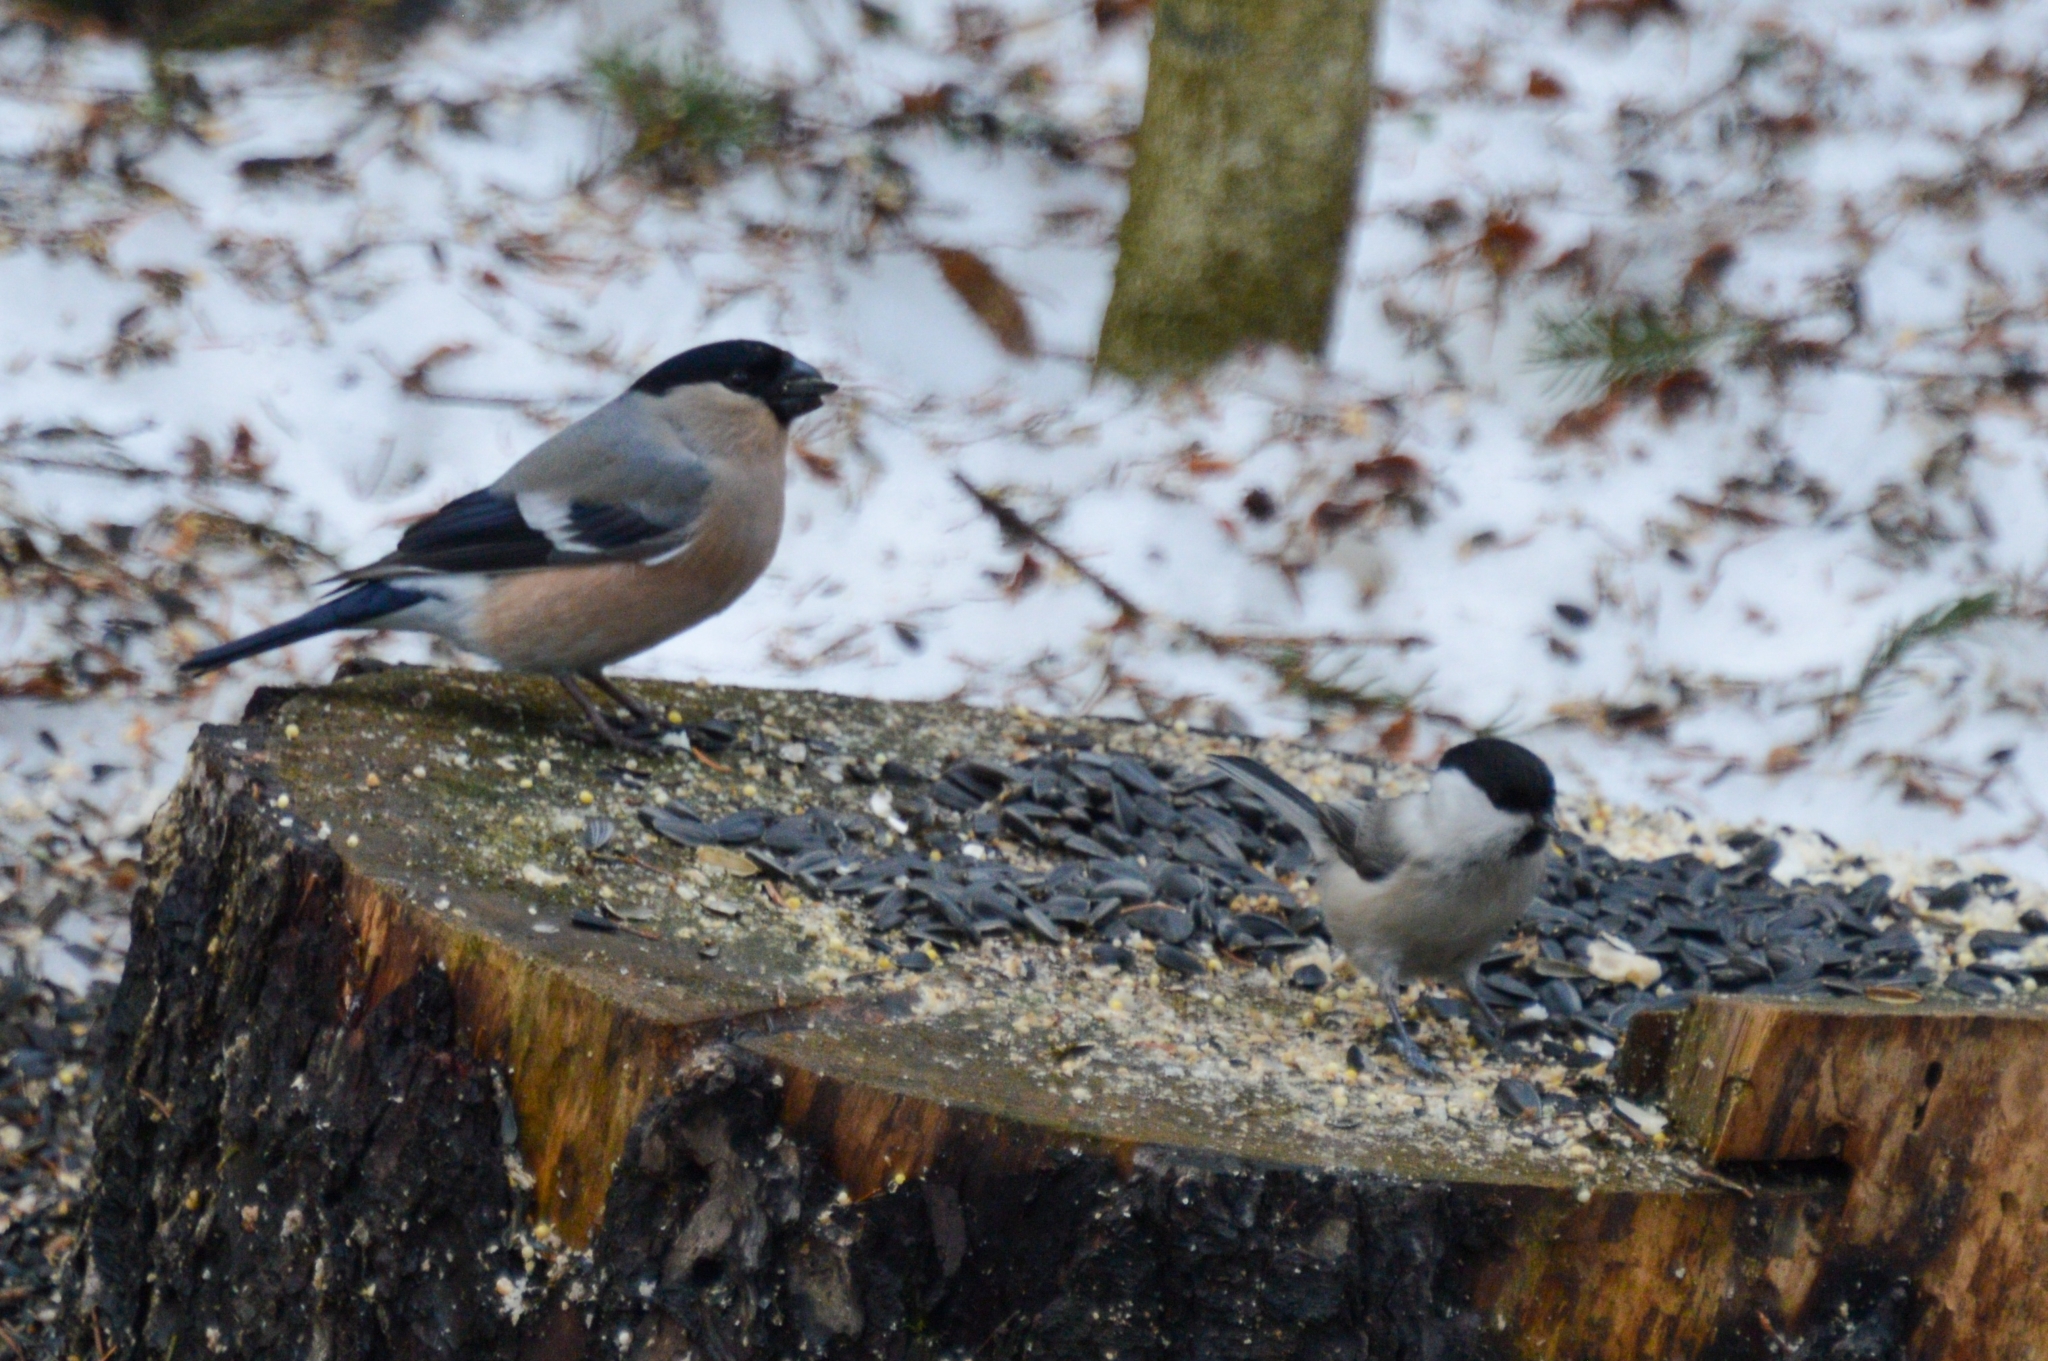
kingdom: Animalia
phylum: Chordata
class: Aves
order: Passeriformes
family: Fringillidae
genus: Pyrrhula
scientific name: Pyrrhula pyrrhula
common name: Eurasian bullfinch
